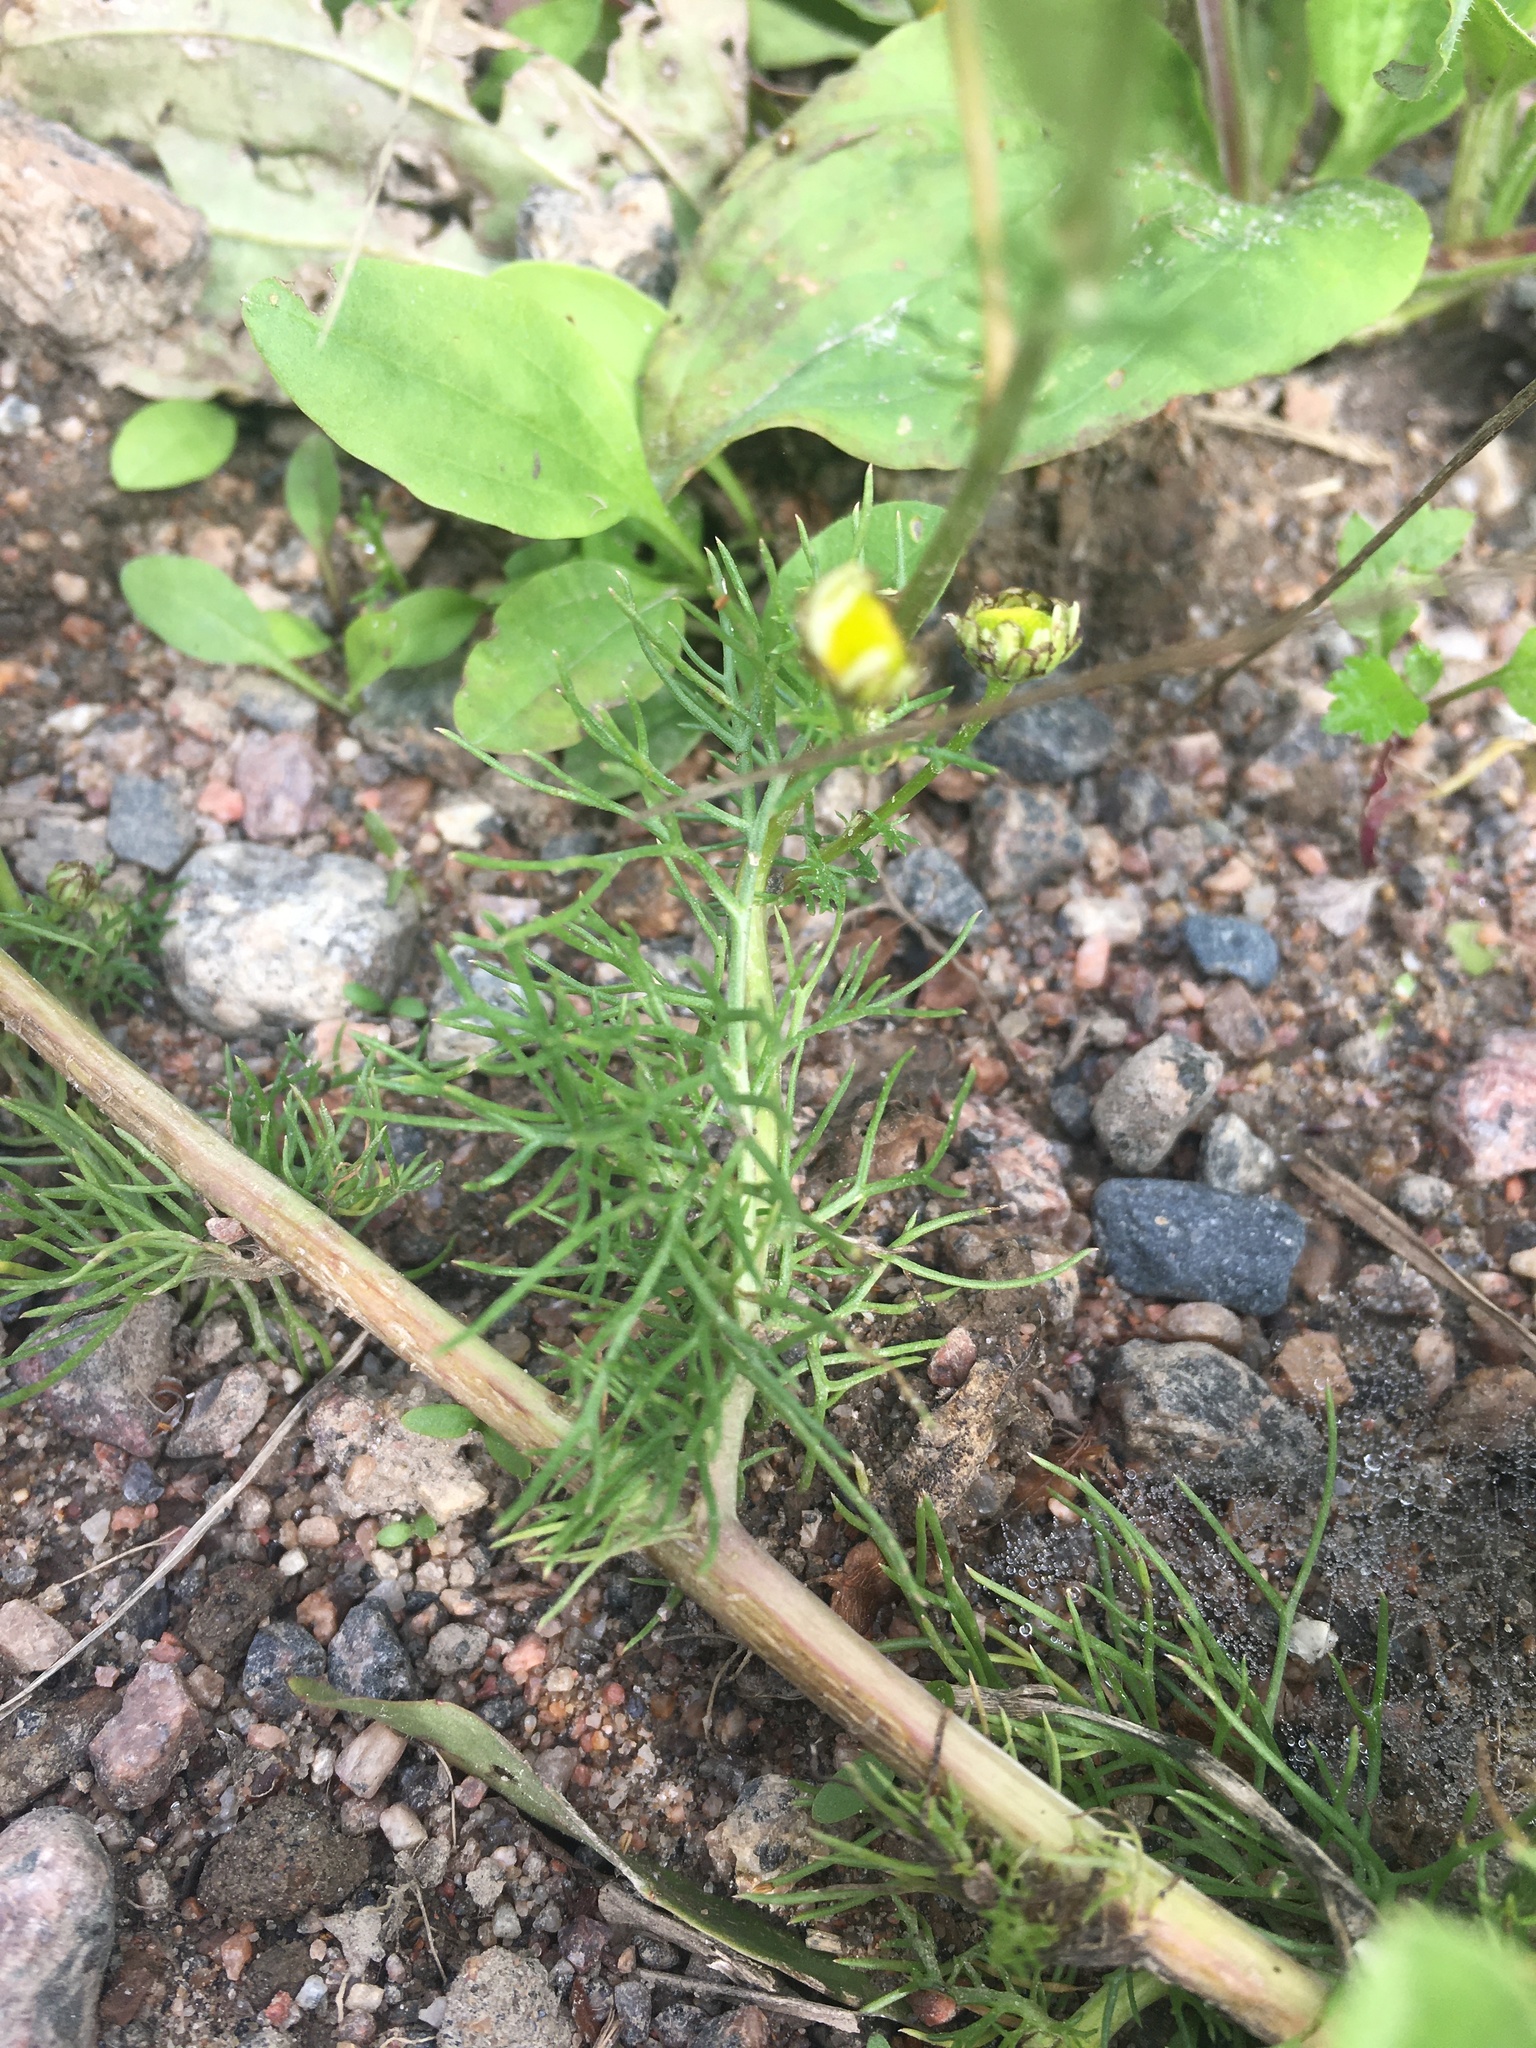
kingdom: Plantae
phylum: Tracheophyta
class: Magnoliopsida
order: Asterales
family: Asteraceae
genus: Tripleurospermum
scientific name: Tripleurospermum inodorum
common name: Scentless mayweed
